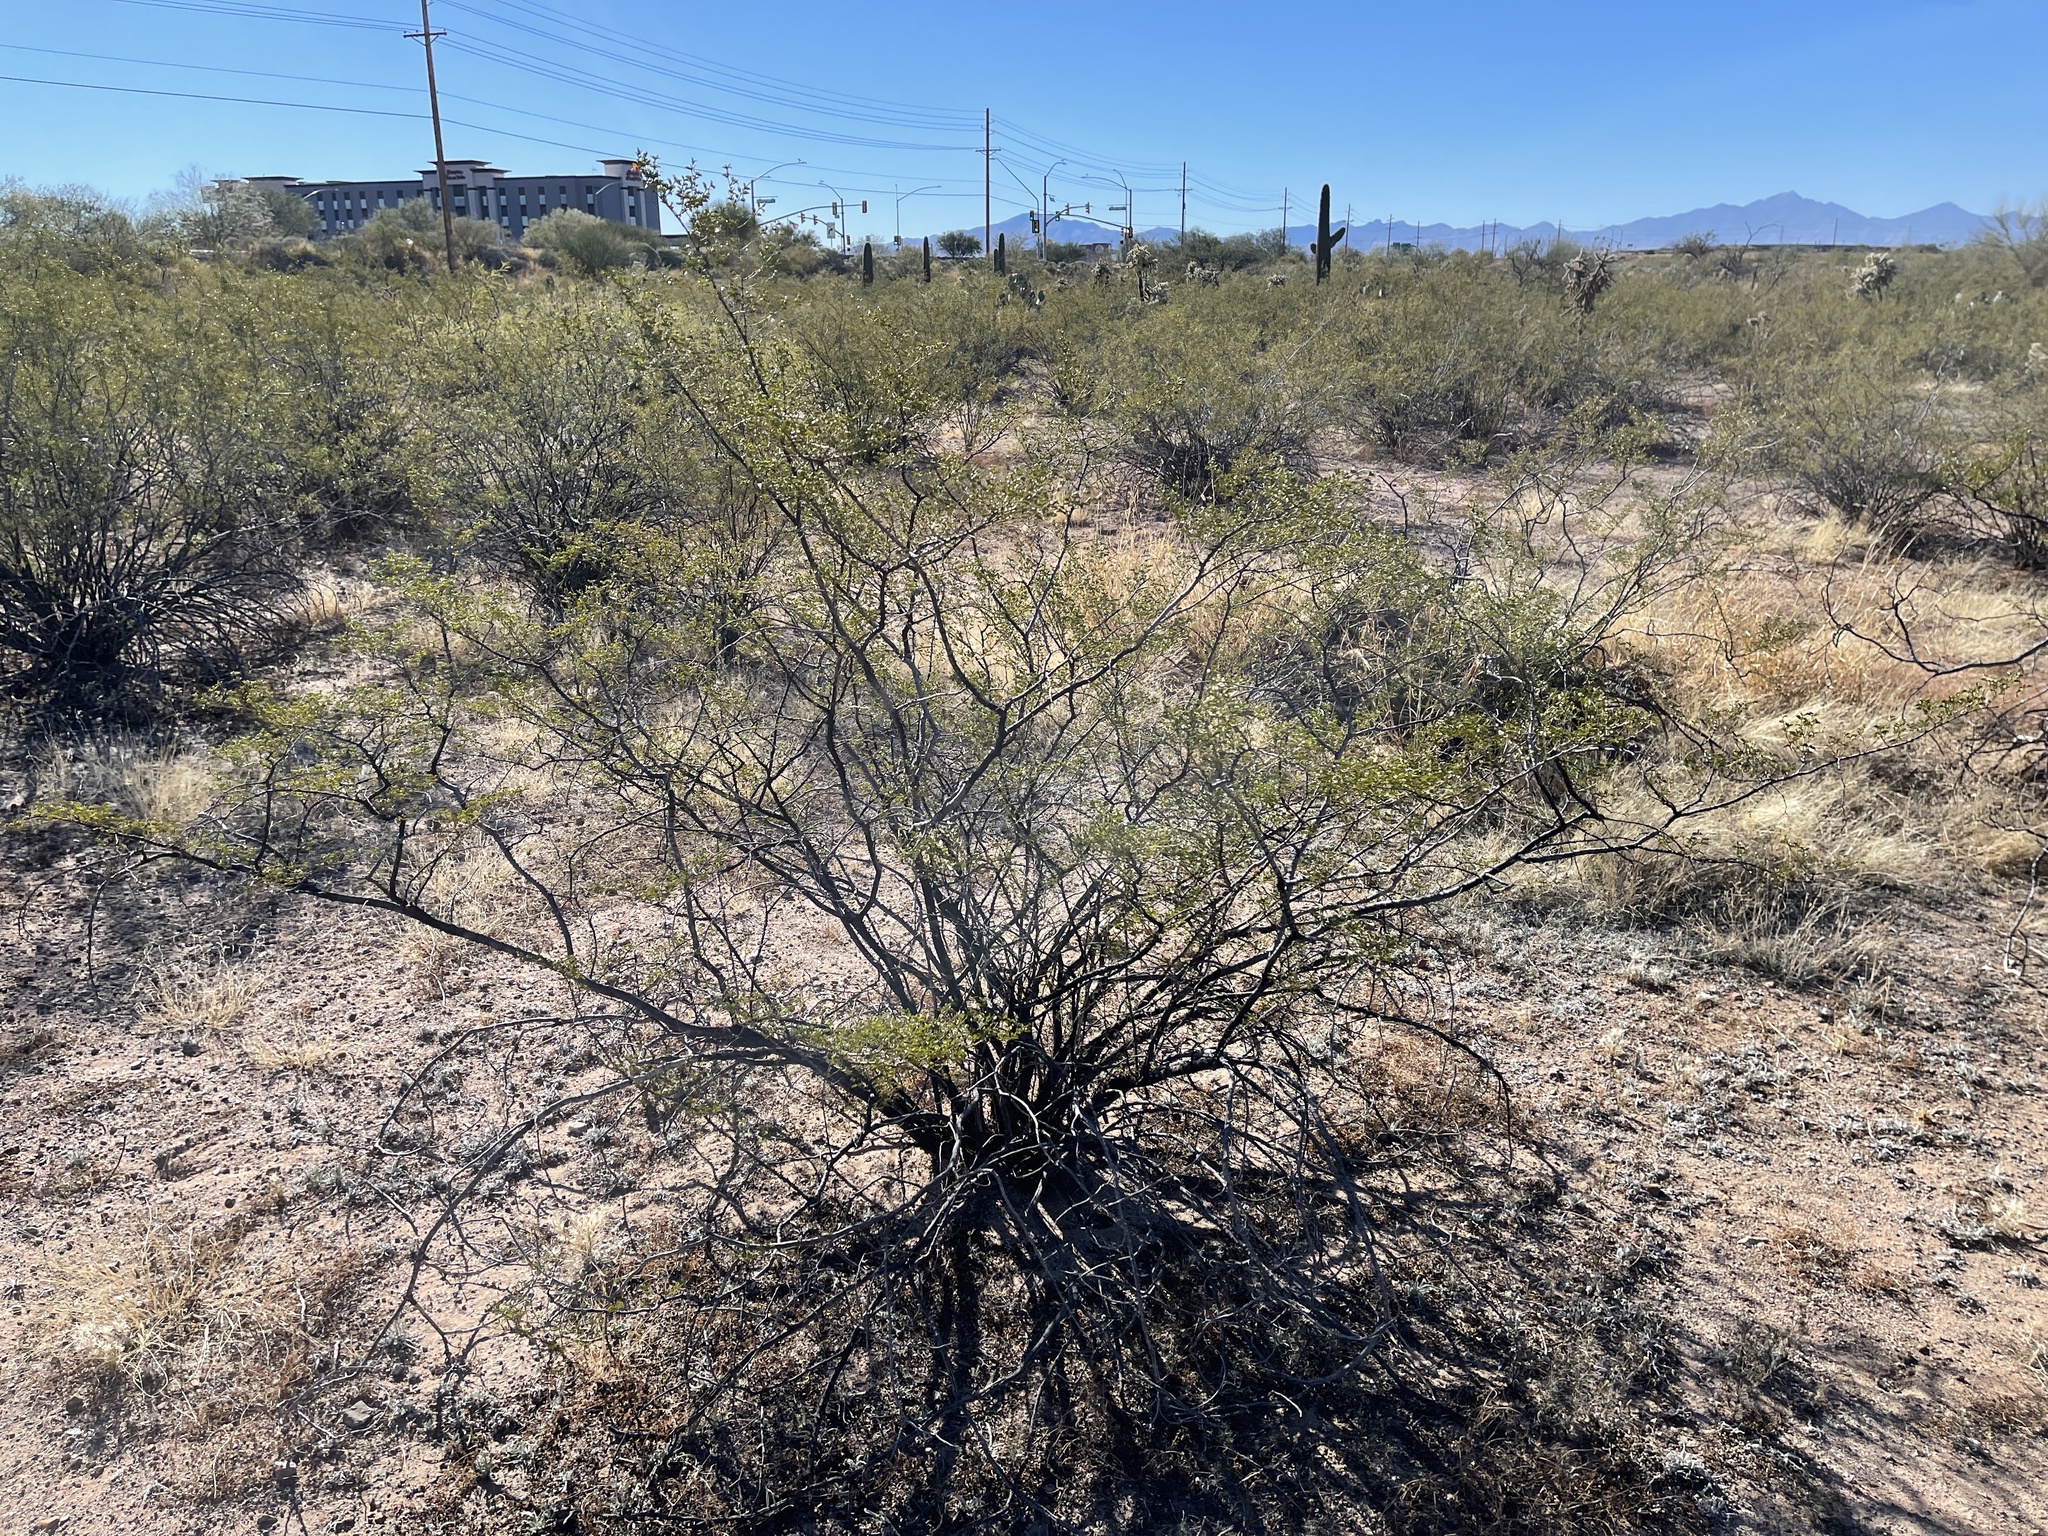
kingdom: Plantae
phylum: Tracheophyta
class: Magnoliopsida
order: Zygophyllales
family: Zygophyllaceae
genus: Larrea
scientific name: Larrea tridentata
